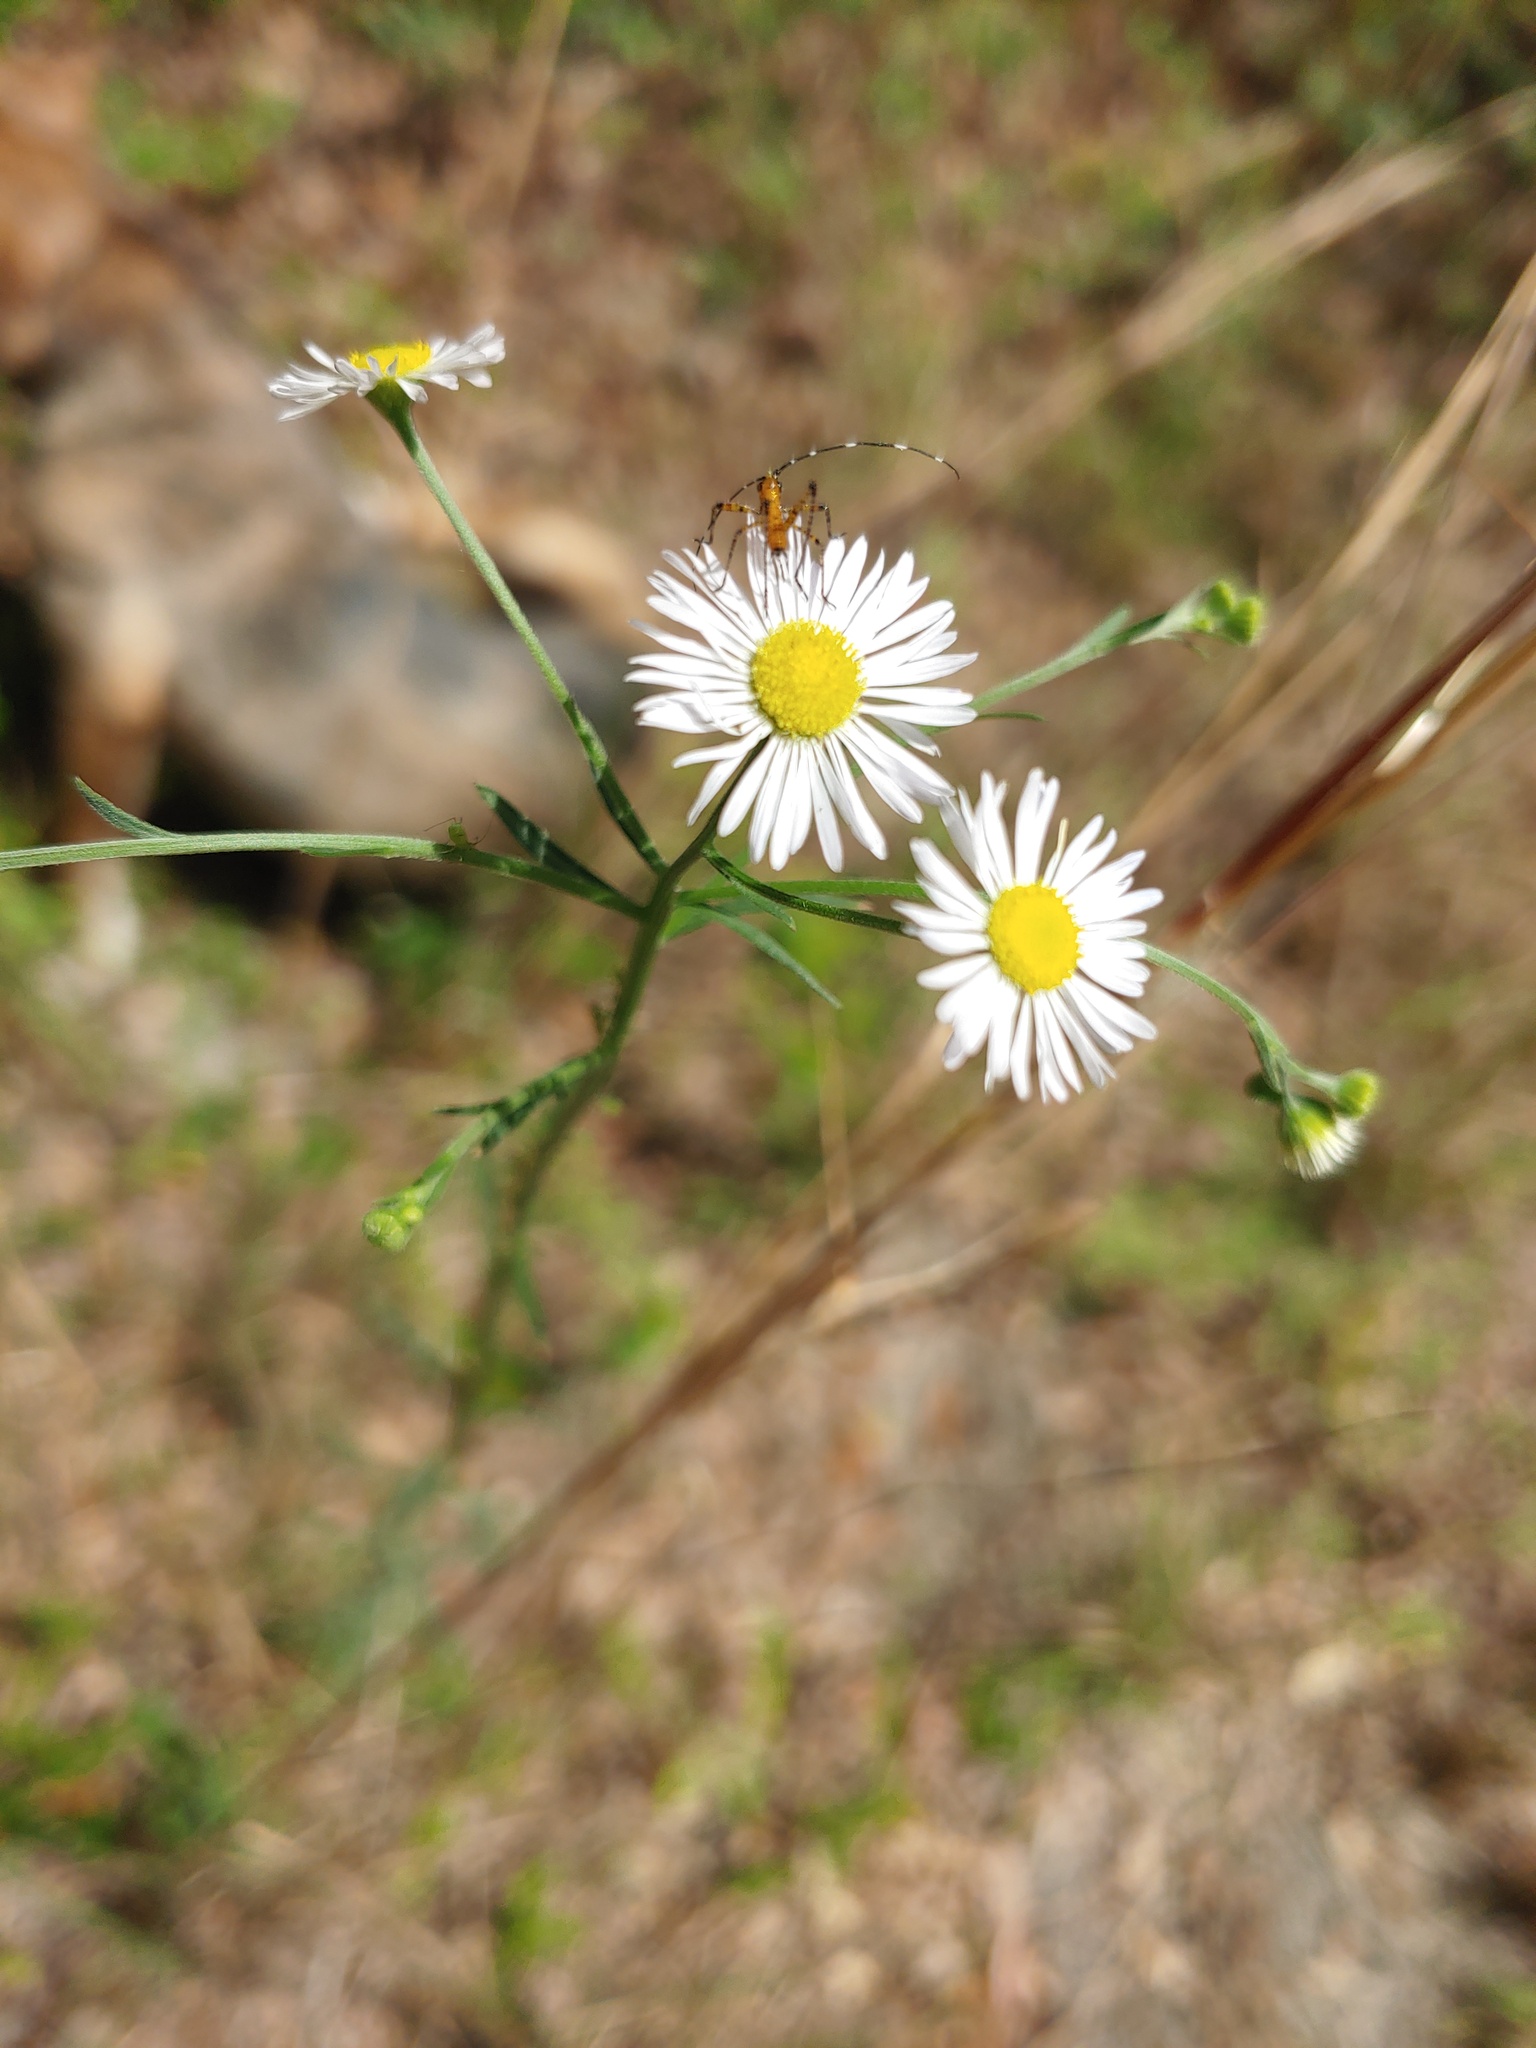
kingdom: Plantae
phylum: Tracheophyta
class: Magnoliopsida
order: Asterales
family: Asteraceae
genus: Erigeron
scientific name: Erigeron strigosus
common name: Common eastern fleabane
